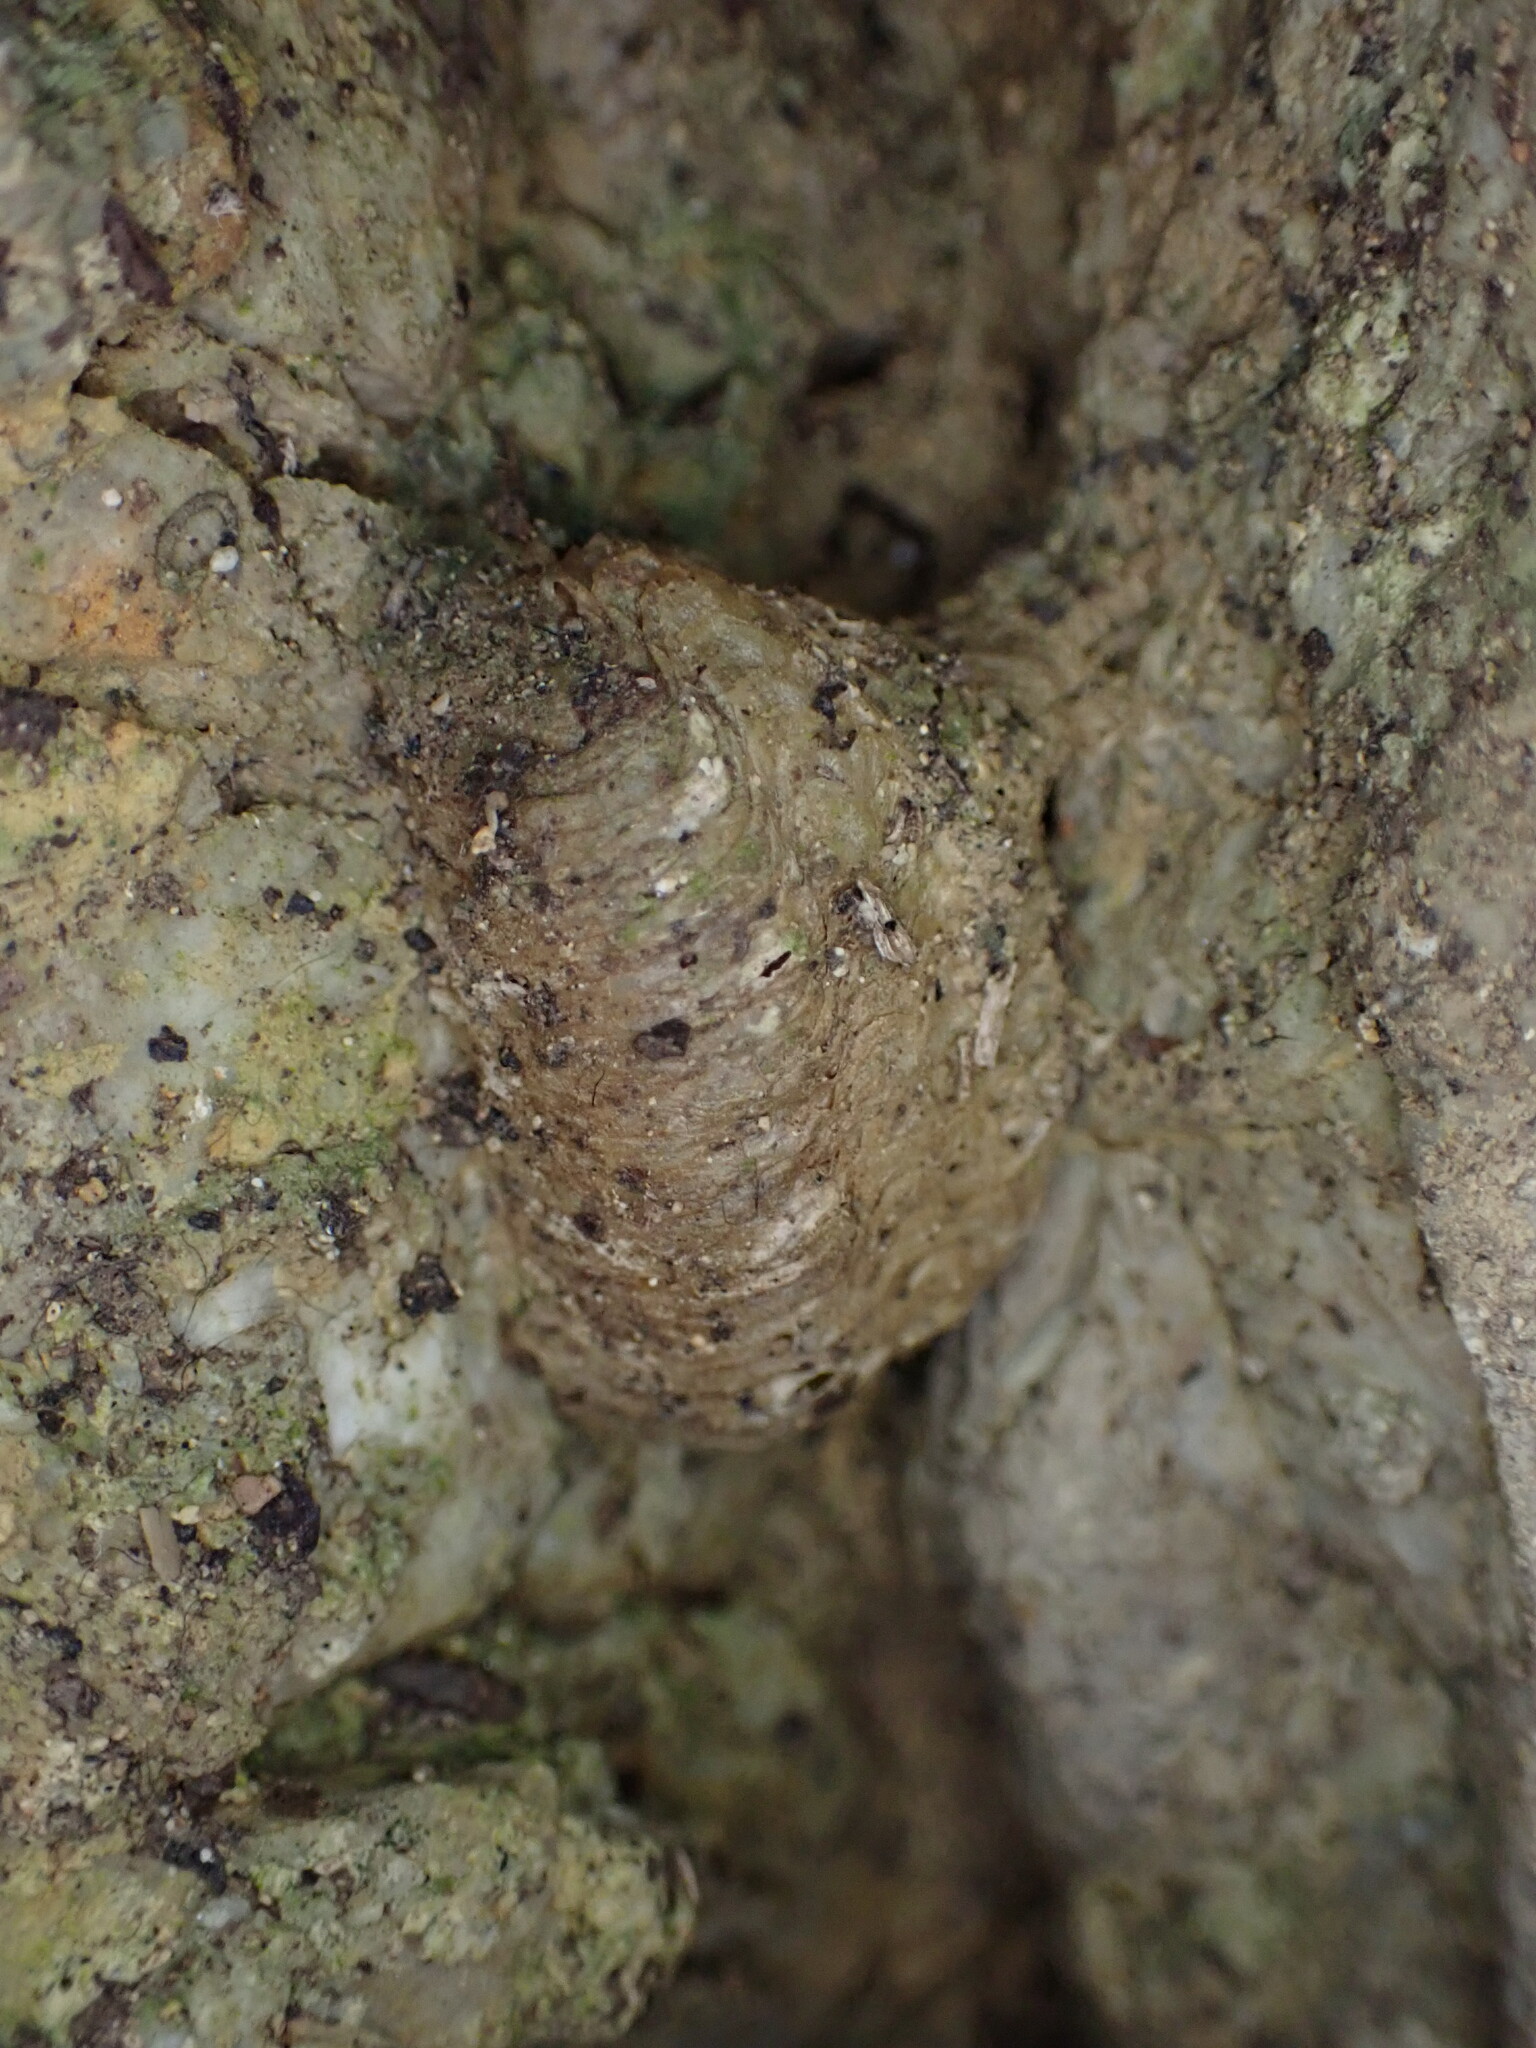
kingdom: Animalia
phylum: Arthropoda
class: Insecta
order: Mantodea
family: Mantidae
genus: Mantis
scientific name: Mantis religiosa
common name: Praying mantis
